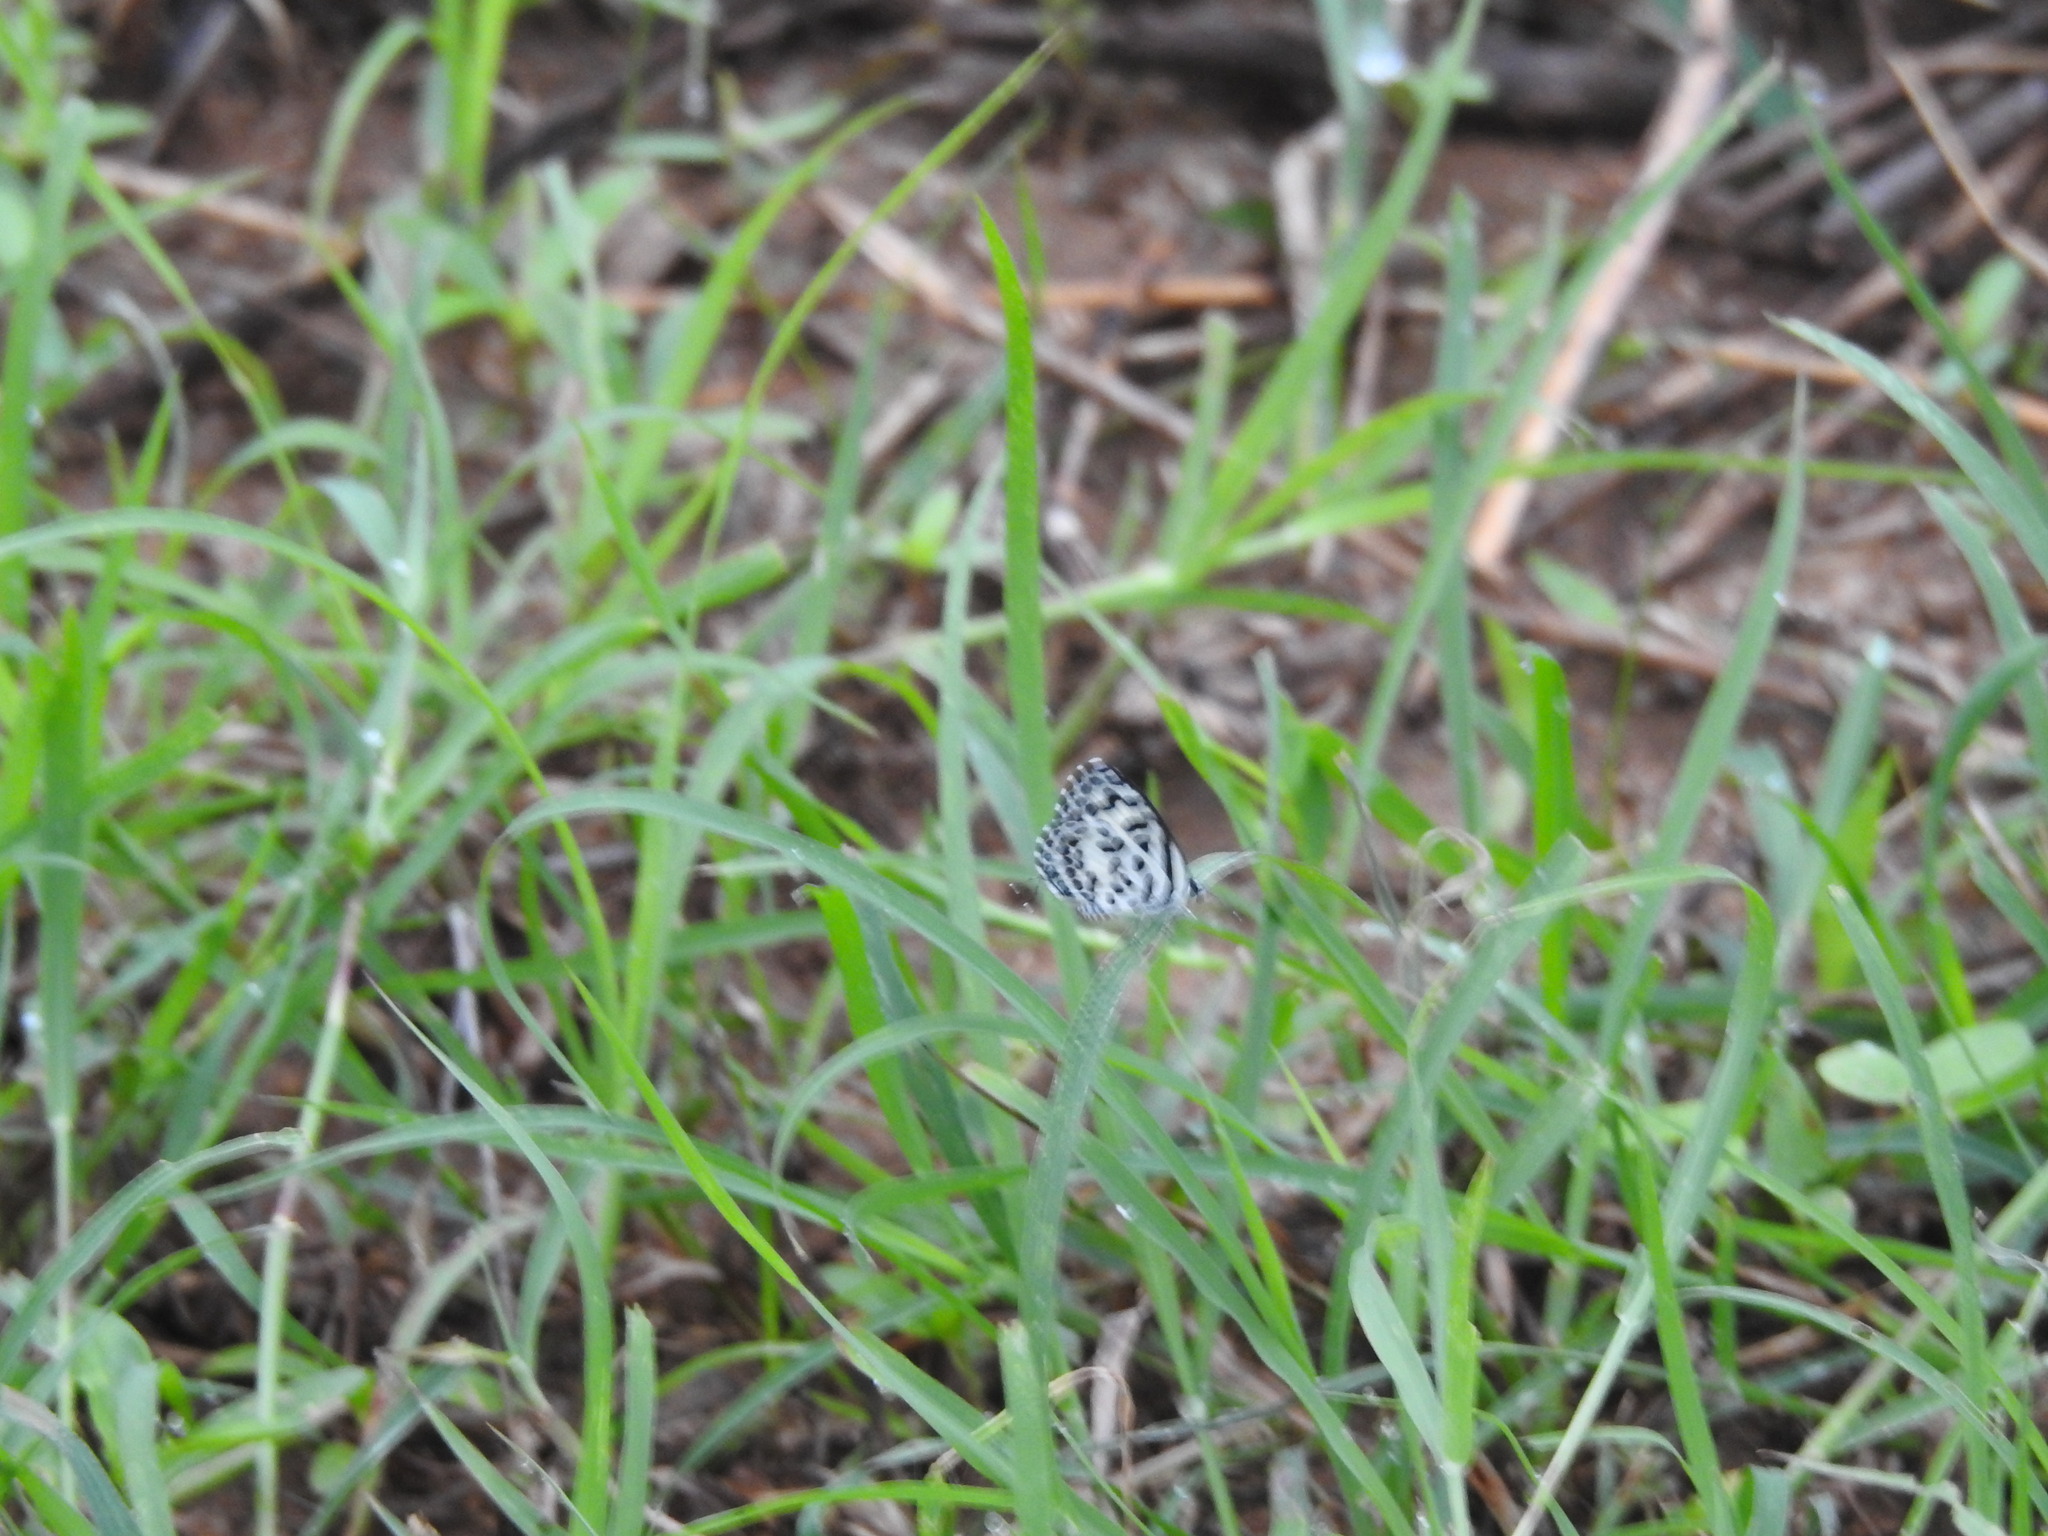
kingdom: Animalia
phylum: Arthropoda
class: Insecta
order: Lepidoptera
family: Lycaenidae
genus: Castalius
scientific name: Castalius rosimon
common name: Common pierrot
